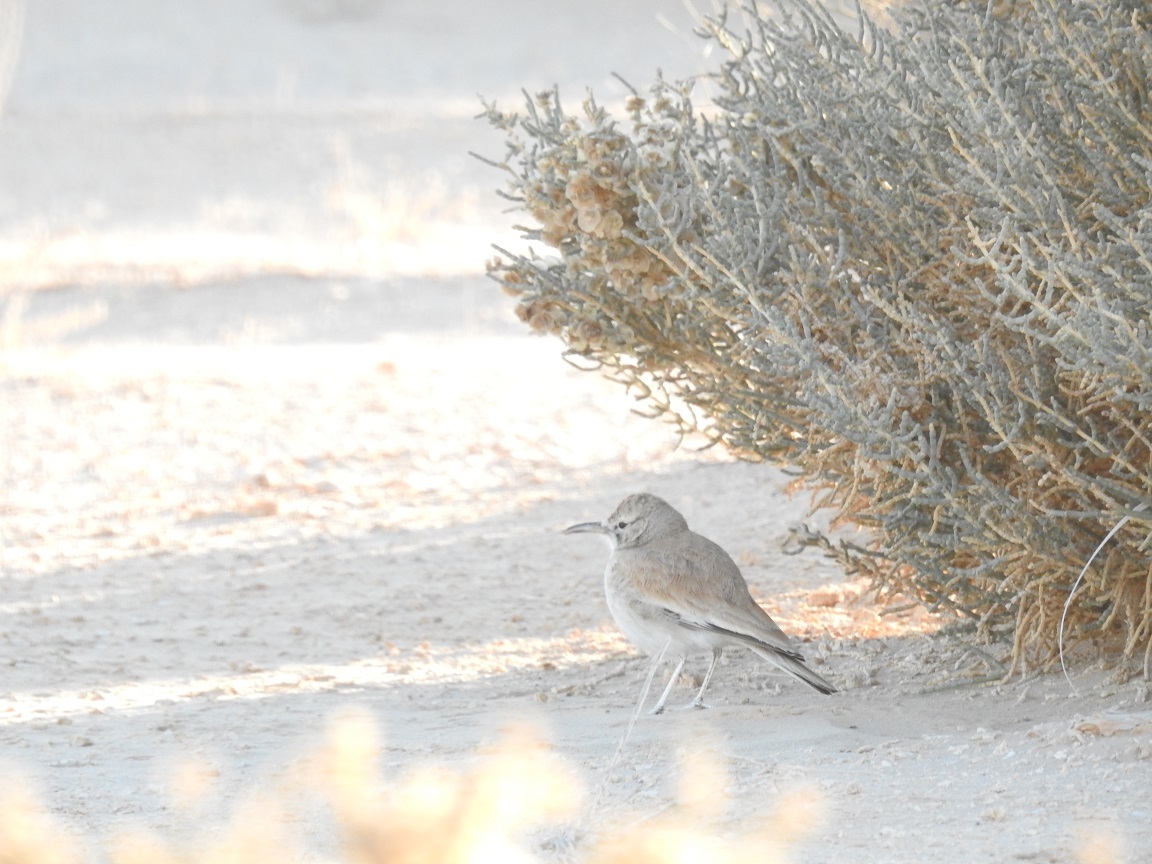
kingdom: Animalia
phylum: Chordata
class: Aves
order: Passeriformes
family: Alaudidae
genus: Alaemon
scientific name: Alaemon alaudipes
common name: Greater hoopoe-lark
